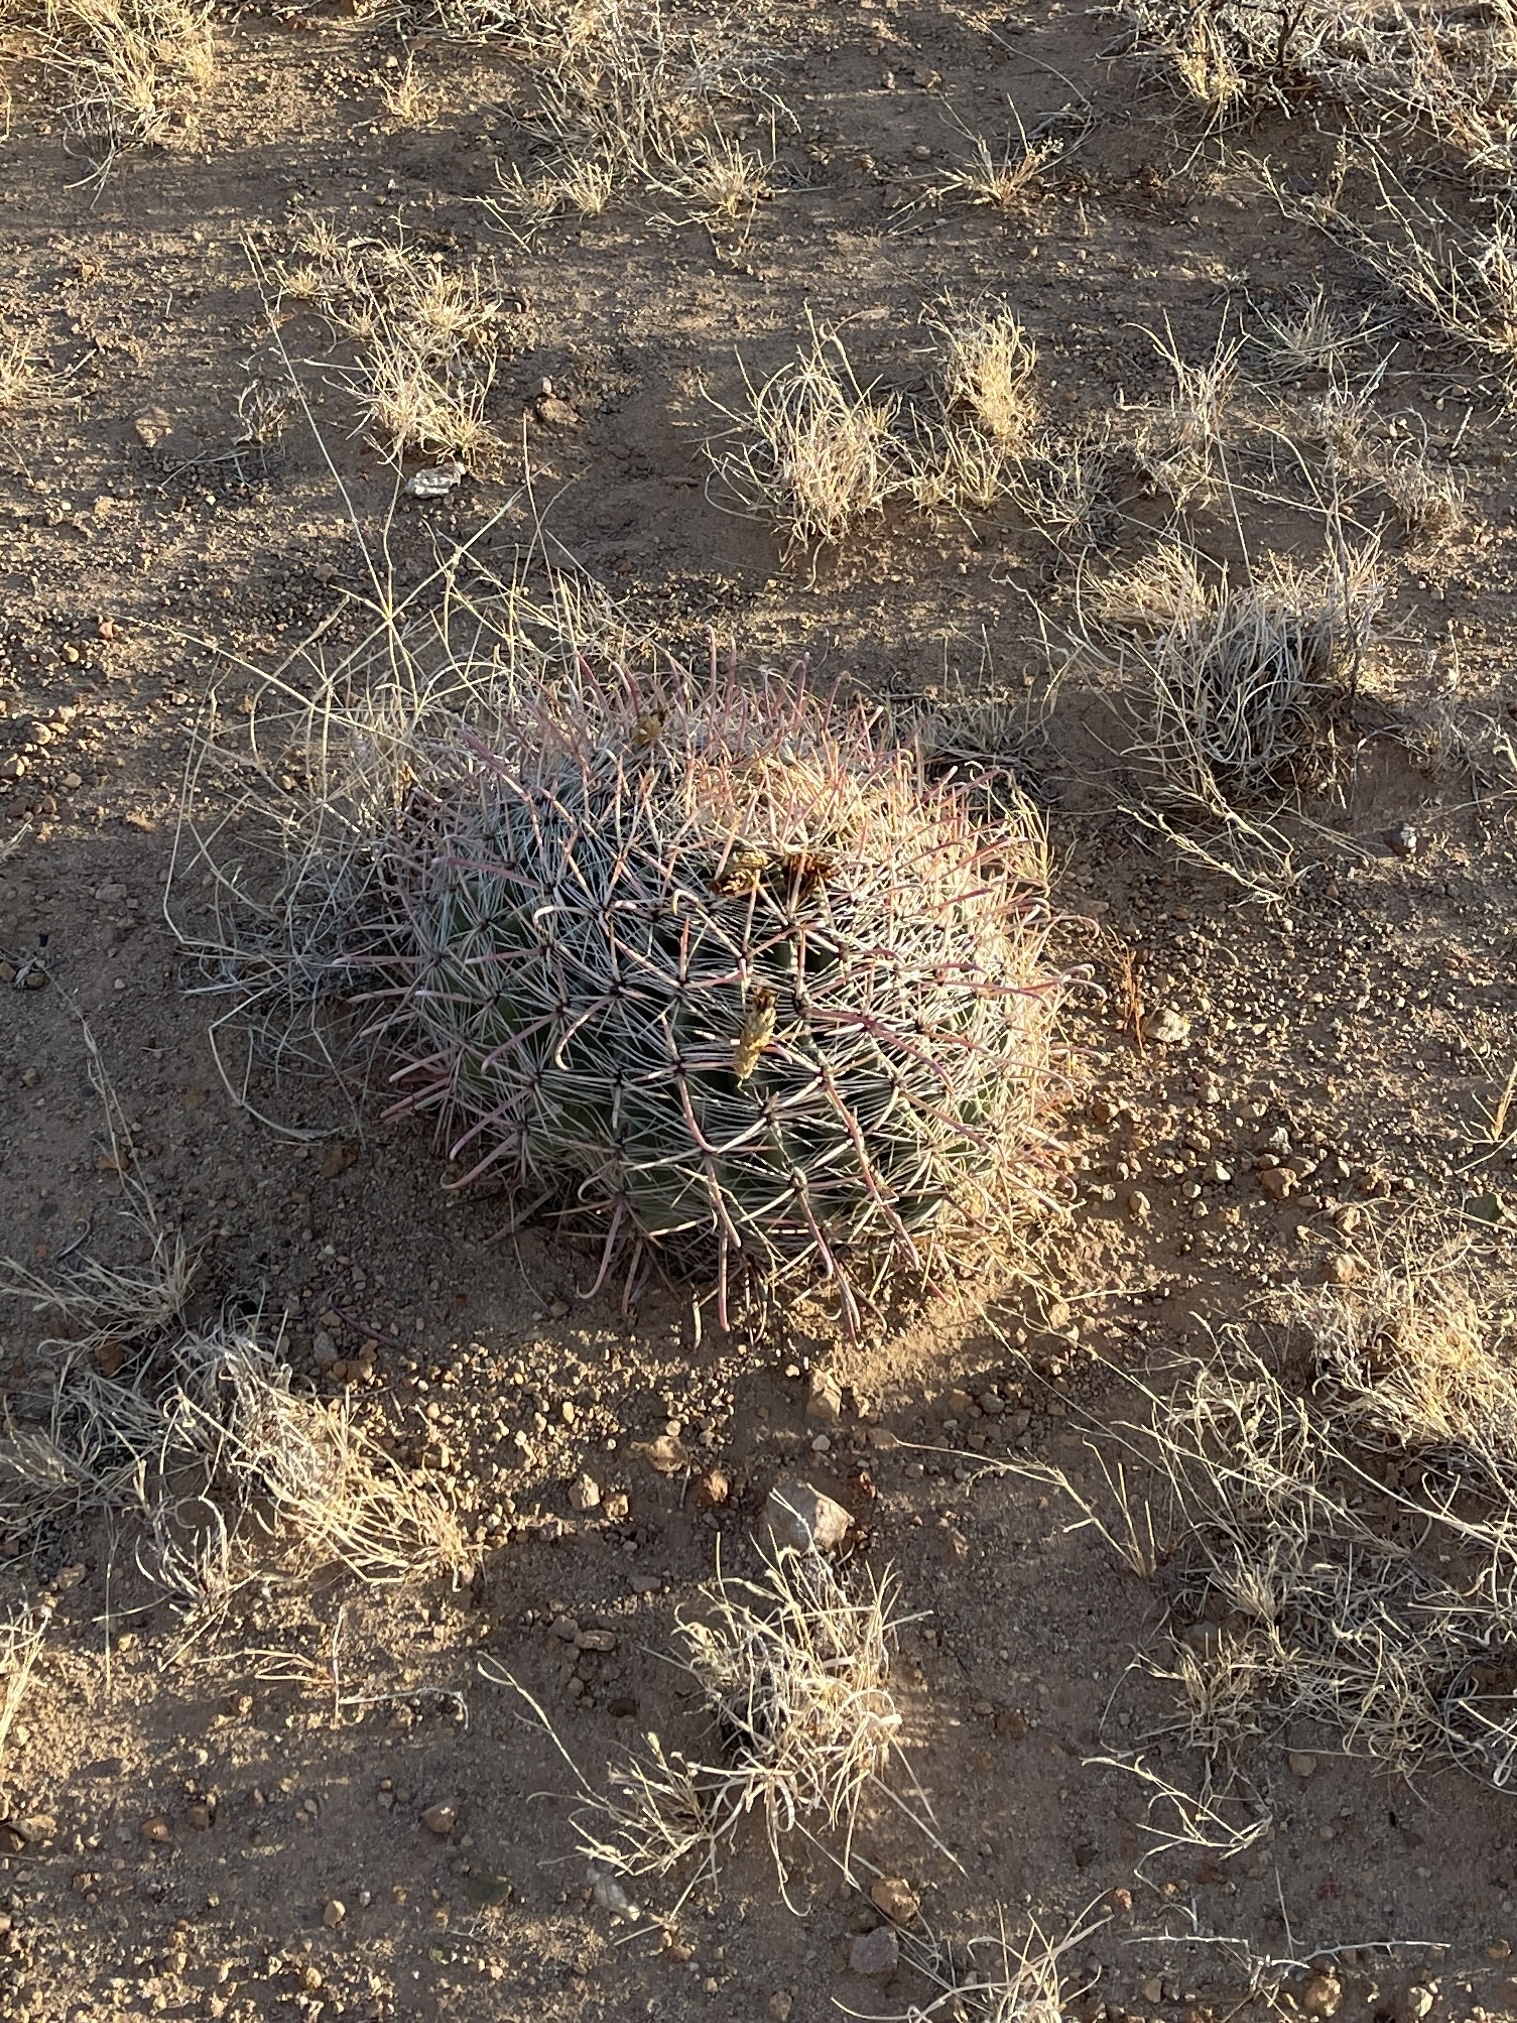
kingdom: Plantae
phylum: Tracheophyta
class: Magnoliopsida
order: Caryophyllales
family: Cactaceae
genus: Ferocactus
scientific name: Ferocactus wislizeni
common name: Candy barrel cactus
